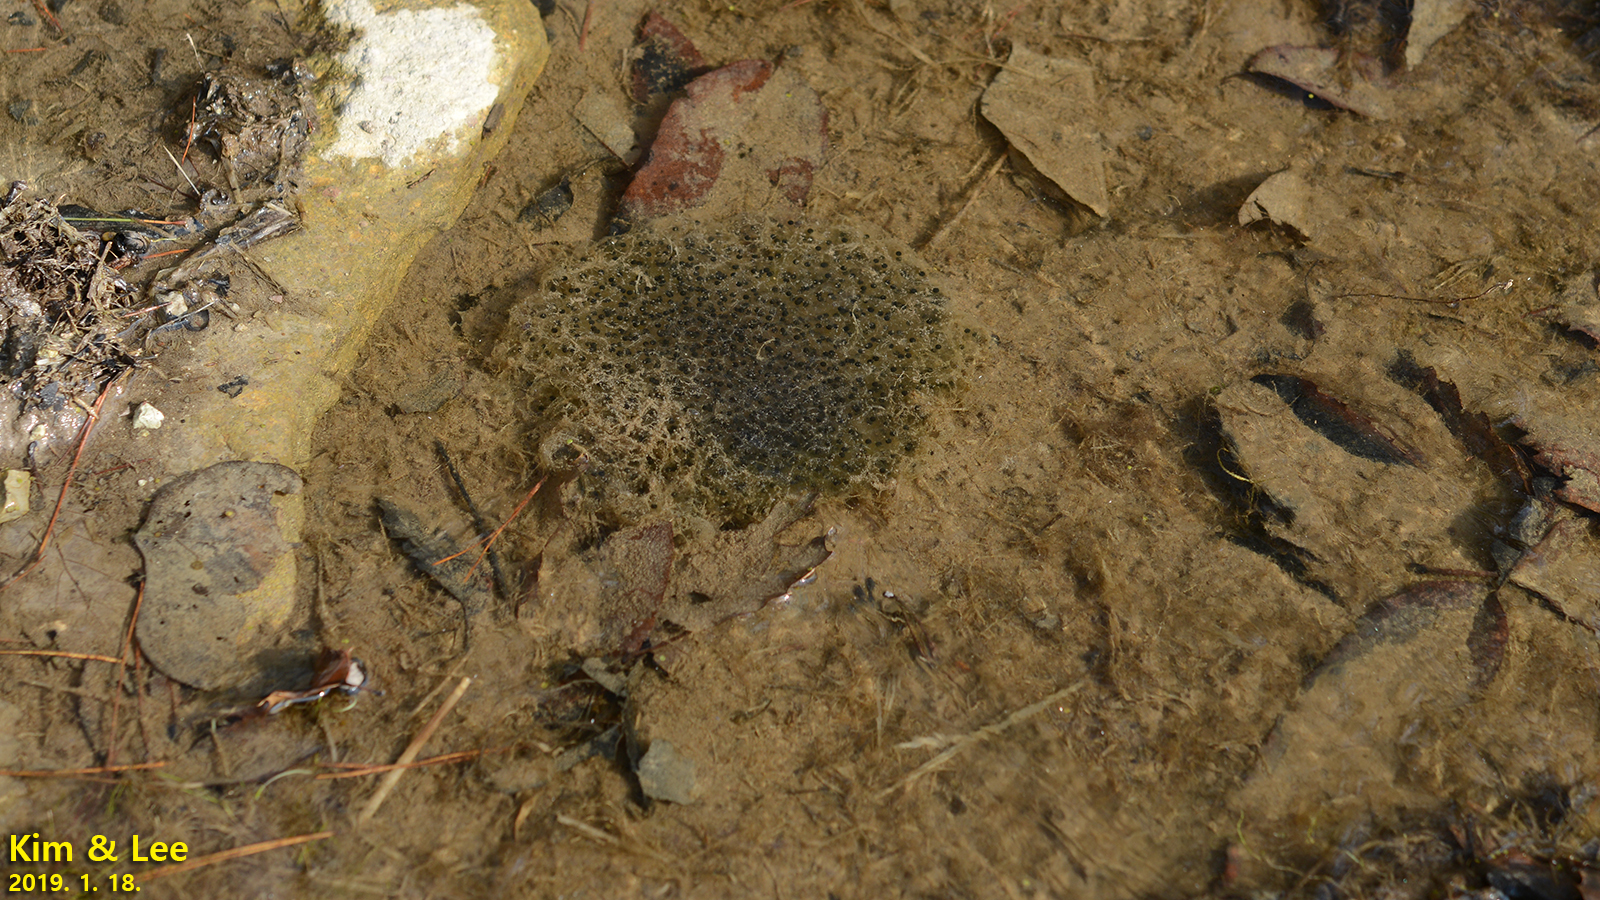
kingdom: Animalia
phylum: Chordata
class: Amphibia
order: Anura
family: Ranidae
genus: Rana
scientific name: Rana uenoi
